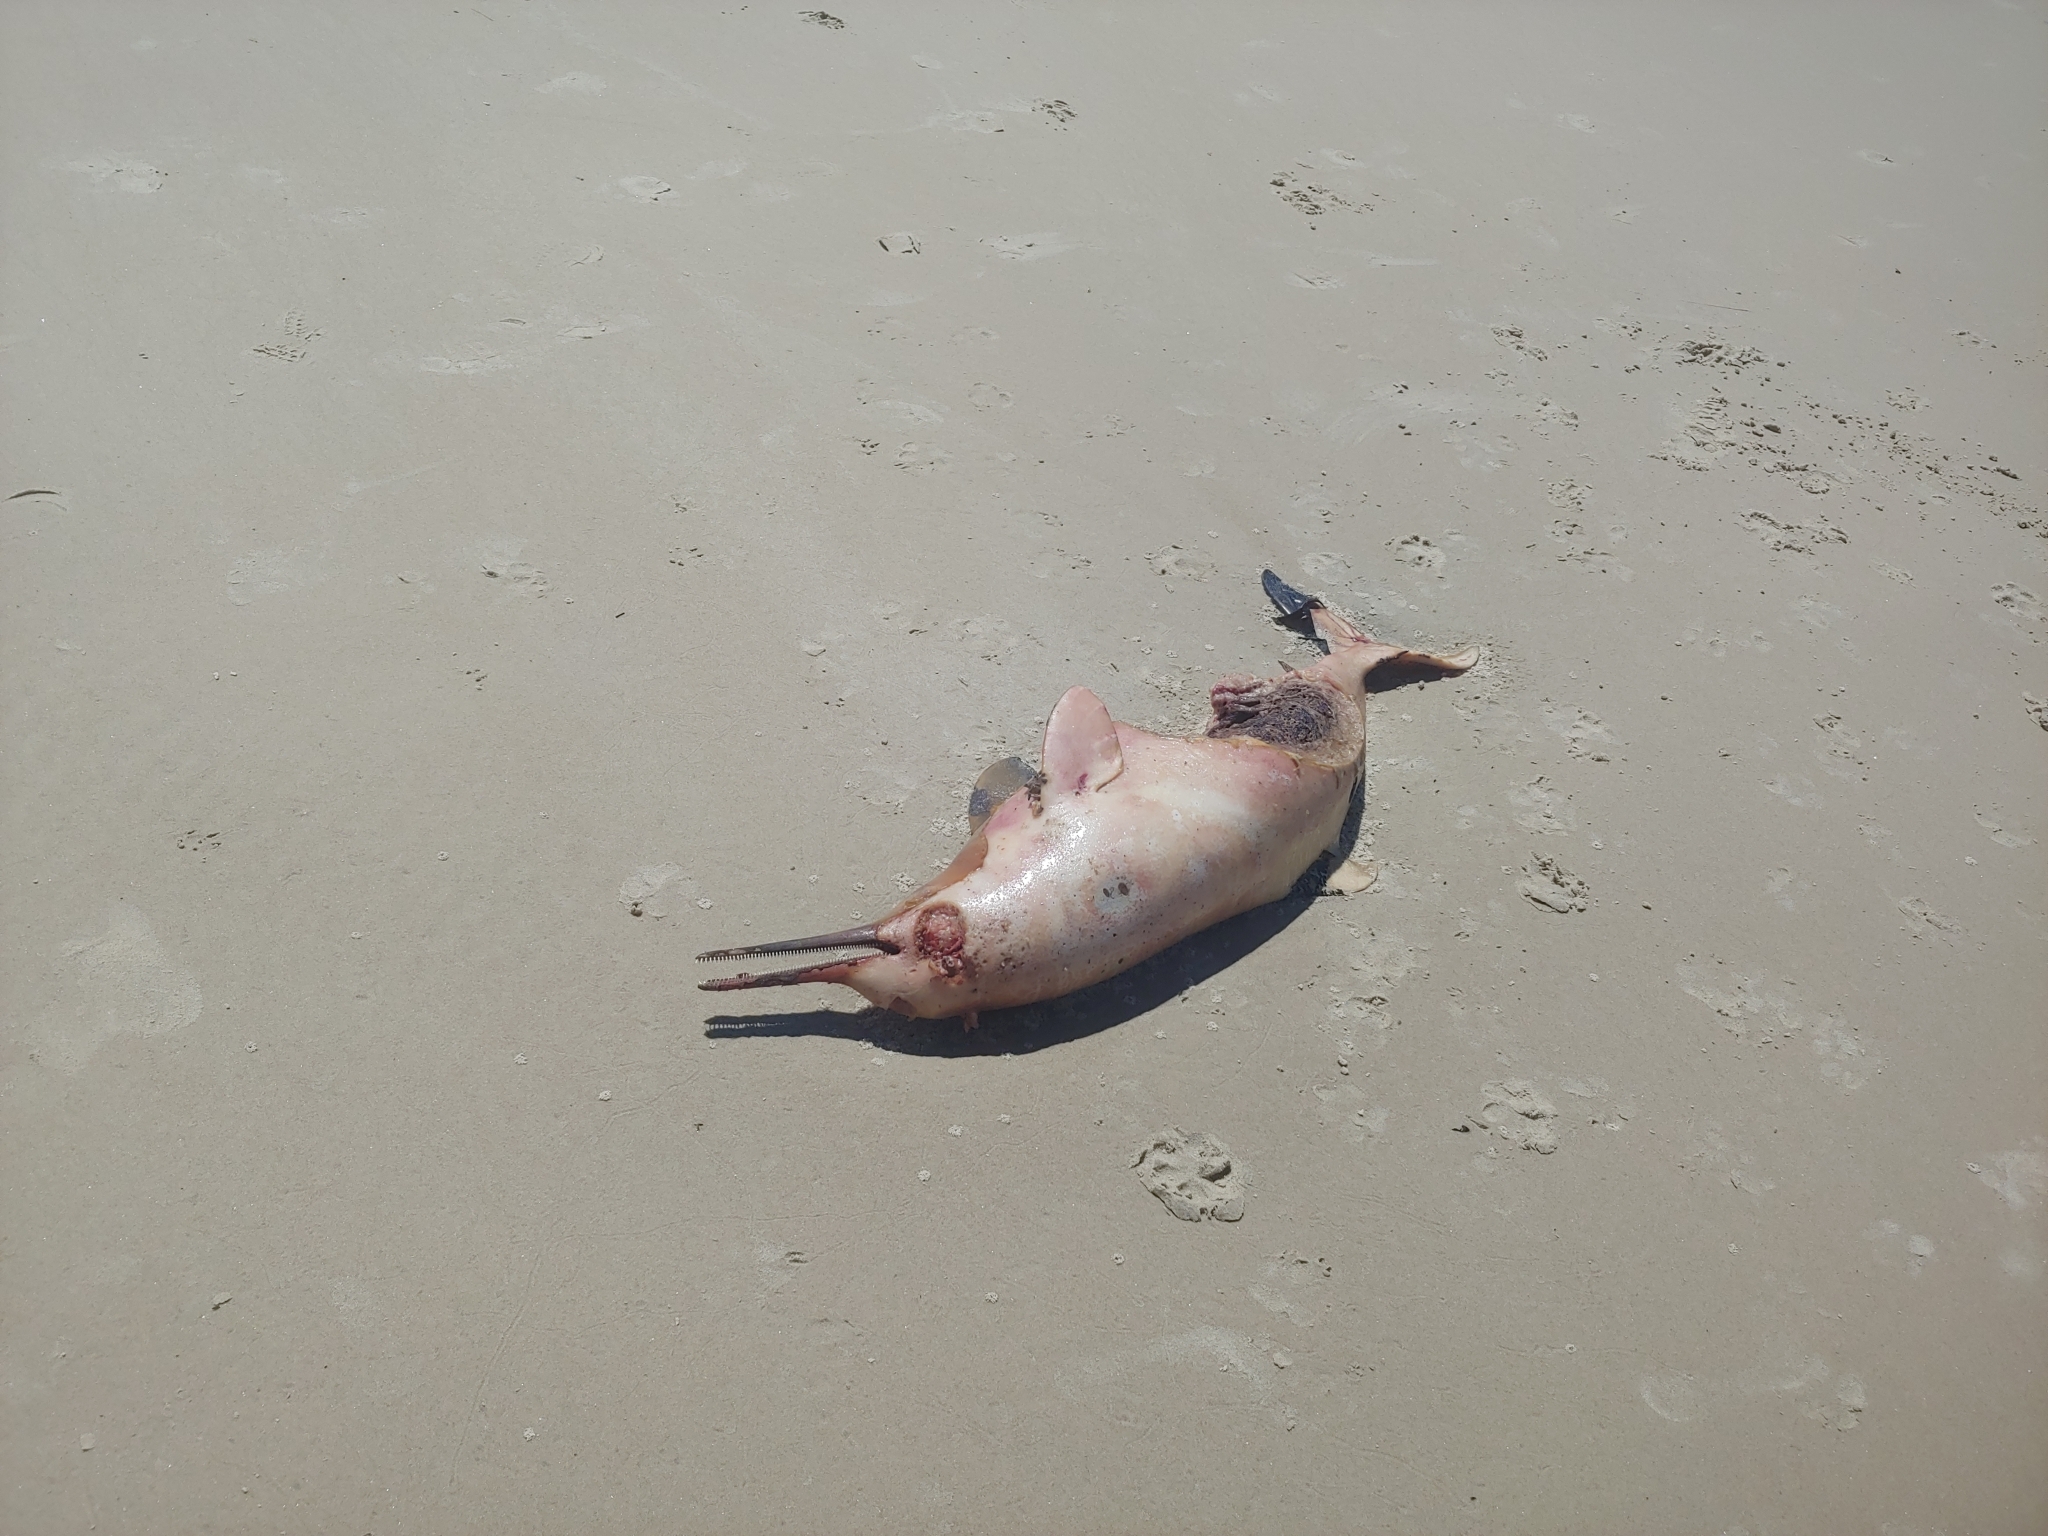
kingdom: Animalia
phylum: Chordata
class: Mammalia
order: Cetacea
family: Pontoporiidae
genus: Pontoporia
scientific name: Pontoporia blainvillei
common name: Franciscana
